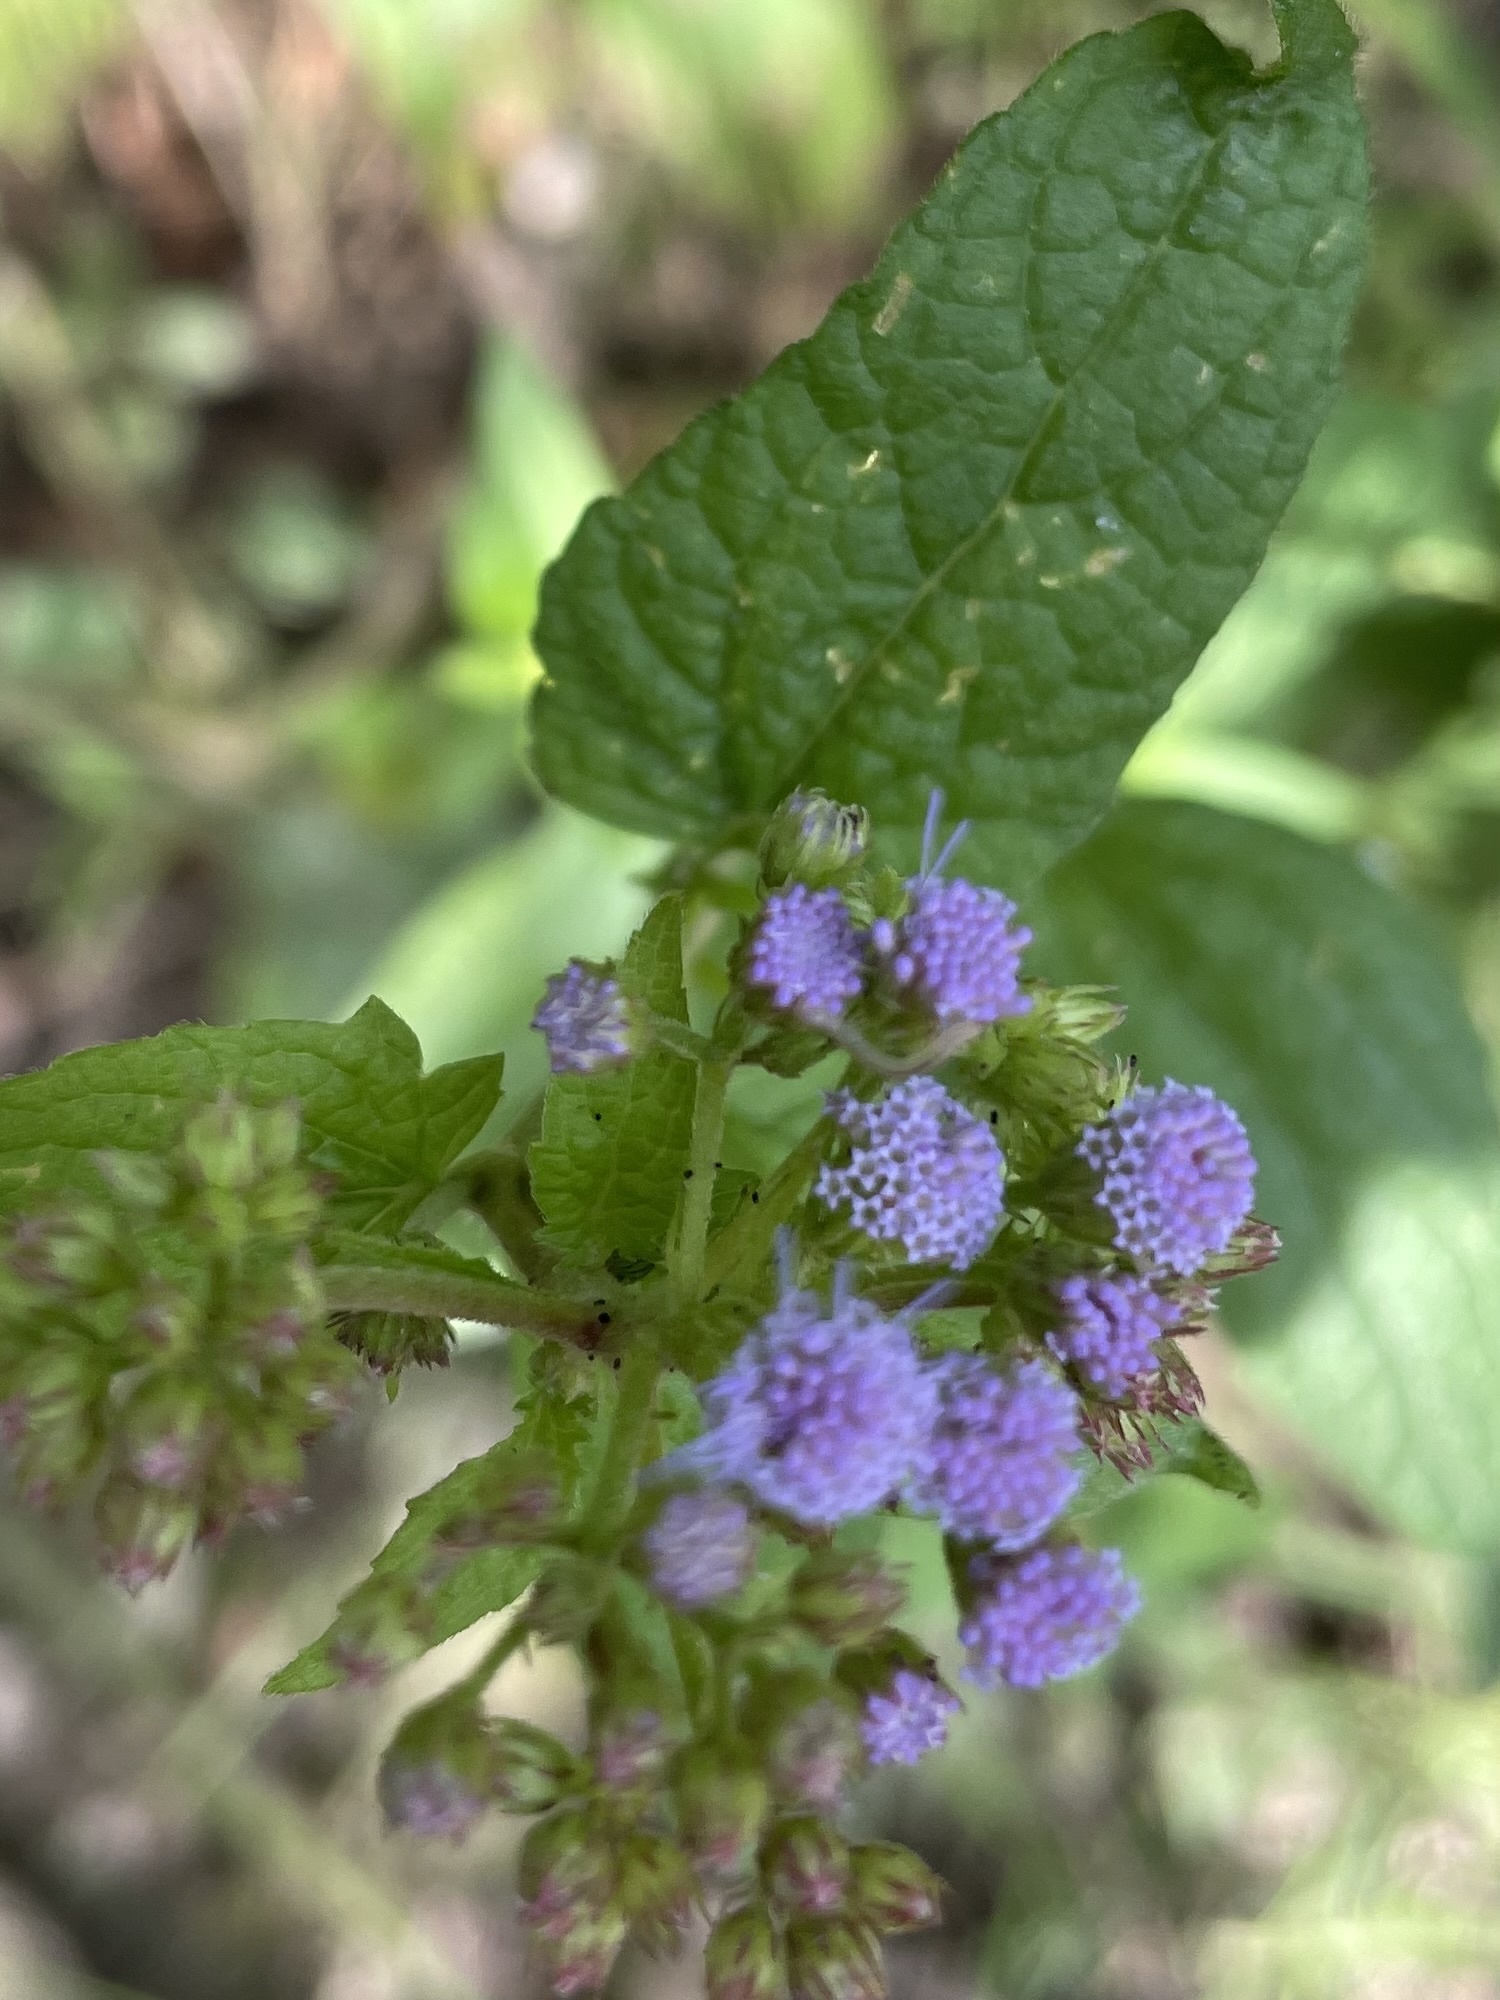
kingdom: Plantae
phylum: Tracheophyta
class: Magnoliopsida
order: Asterales
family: Asteraceae
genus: Conoclinium
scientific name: Conoclinium coelestinum
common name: Blue mistflower
